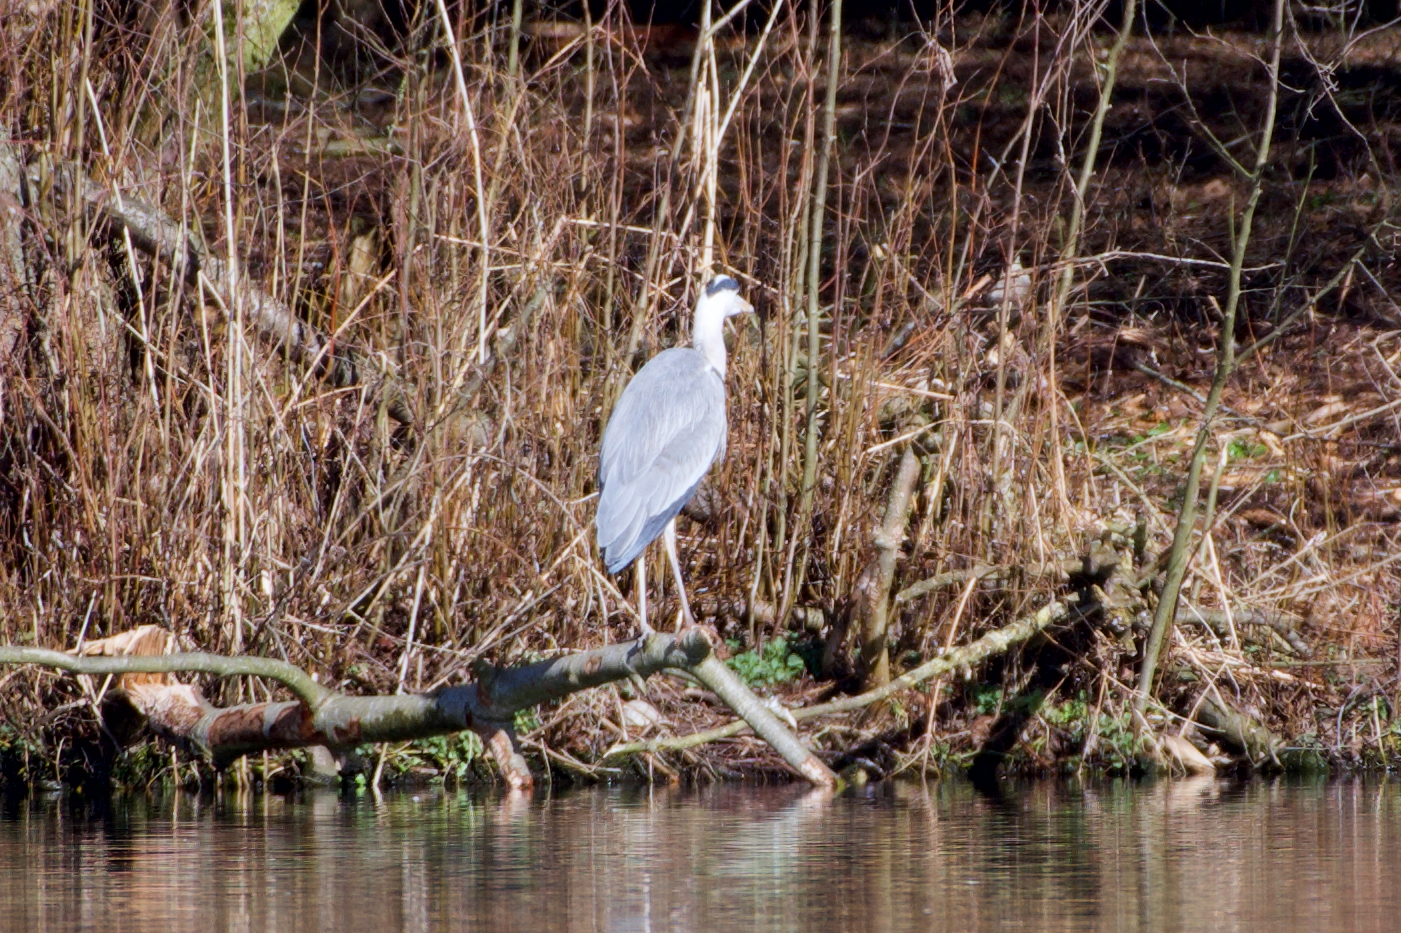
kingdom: Animalia
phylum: Chordata
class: Aves
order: Pelecaniformes
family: Ardeidae
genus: Ardea
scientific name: Ardea cinerea
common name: Grey heron
